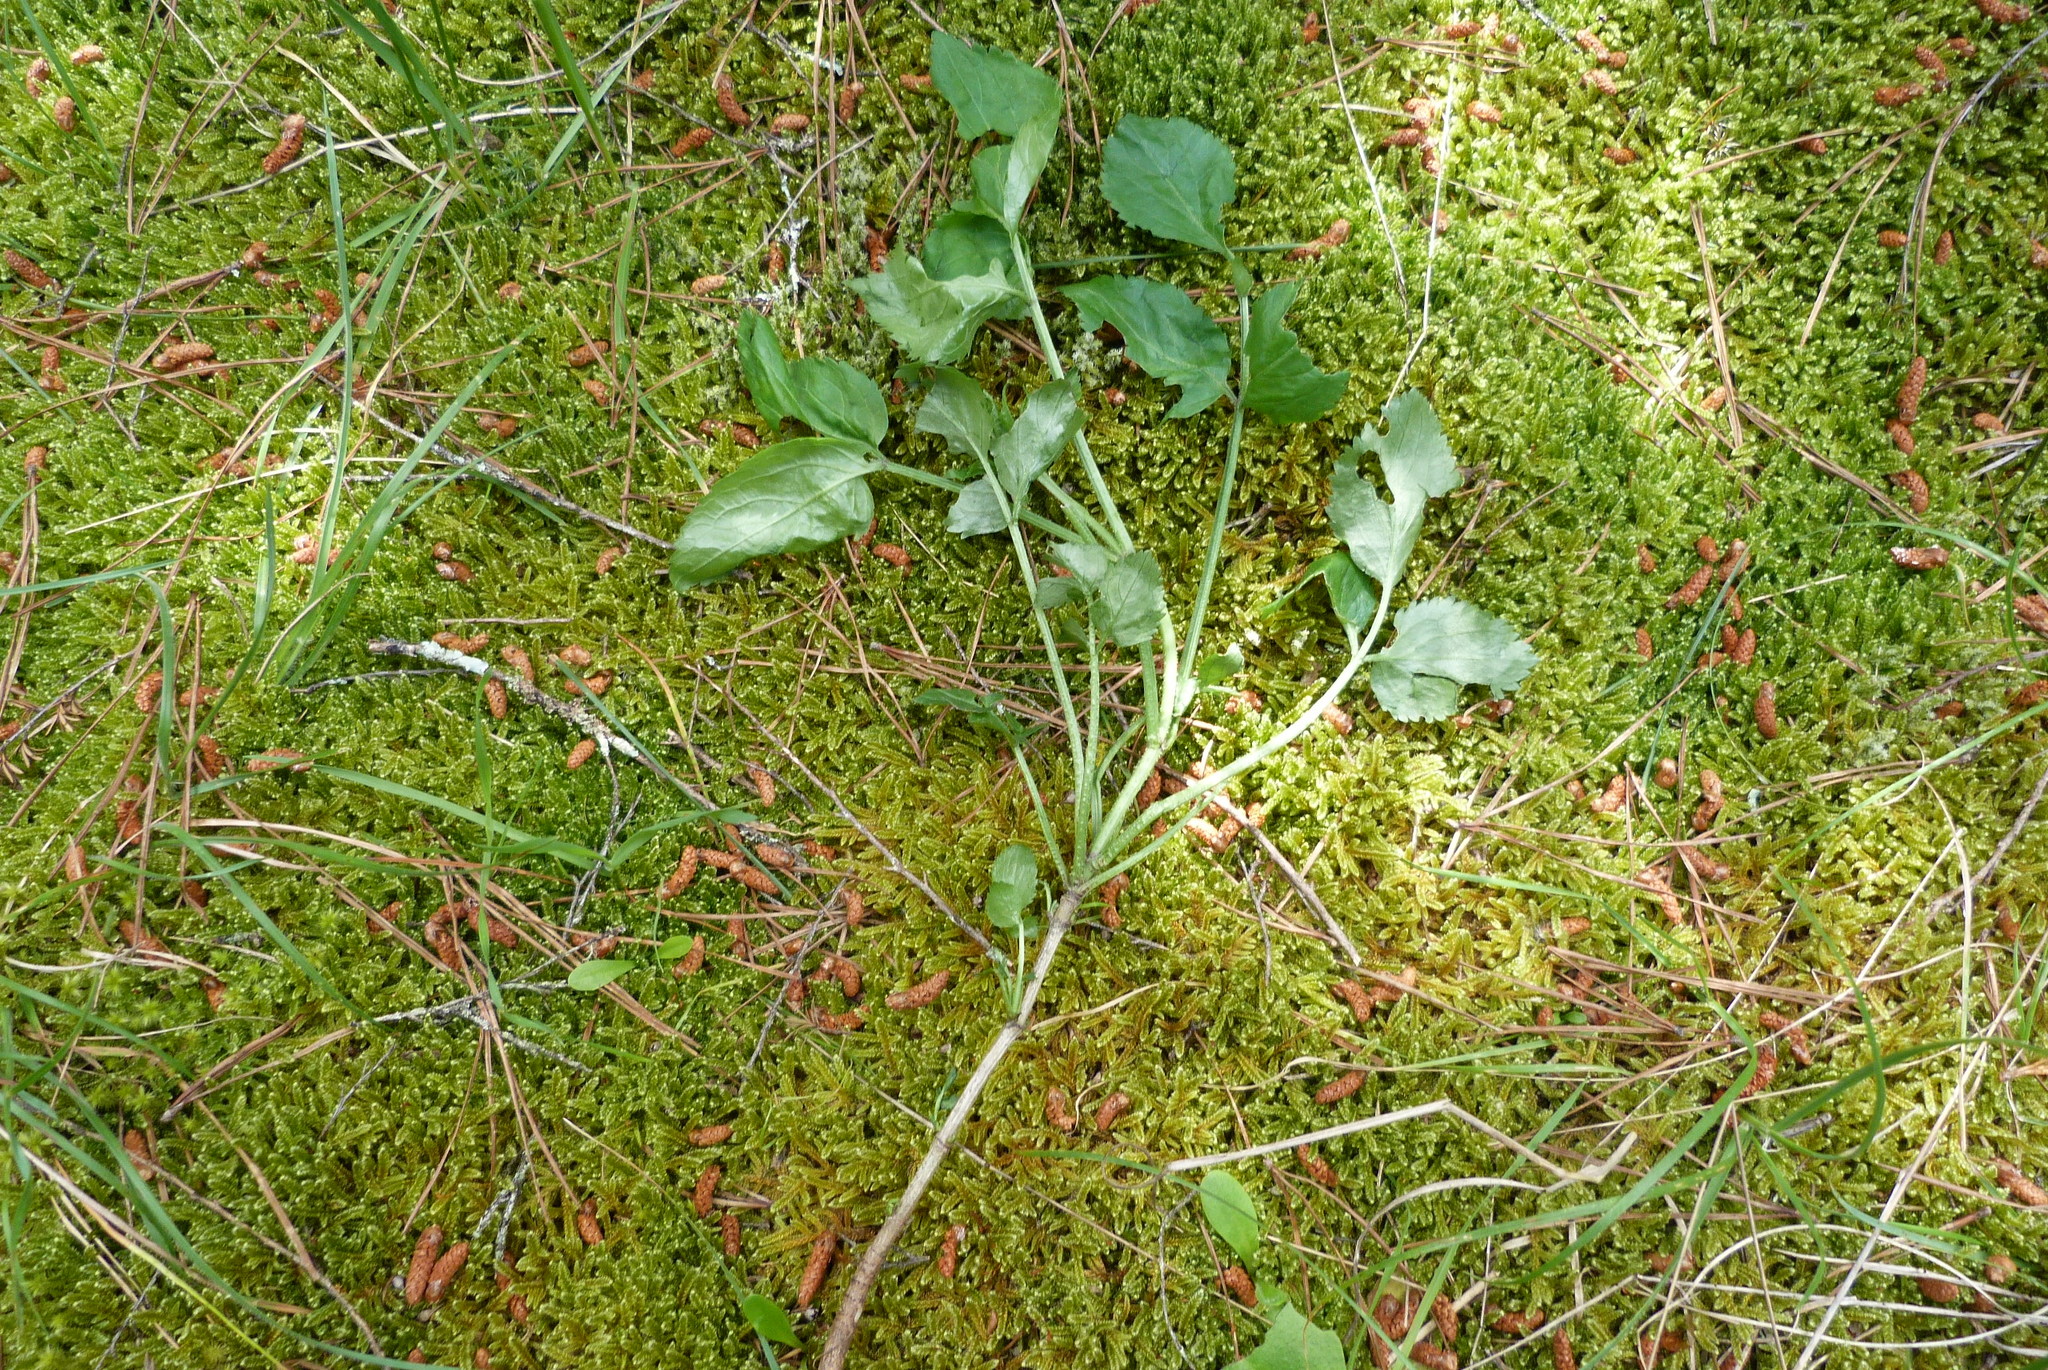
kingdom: Plantae
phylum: Tracheophyta
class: Magnoliopsida
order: Dipsacales
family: Viburnaceae
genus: Sambucus
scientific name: Sambucus nigra
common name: Elder
